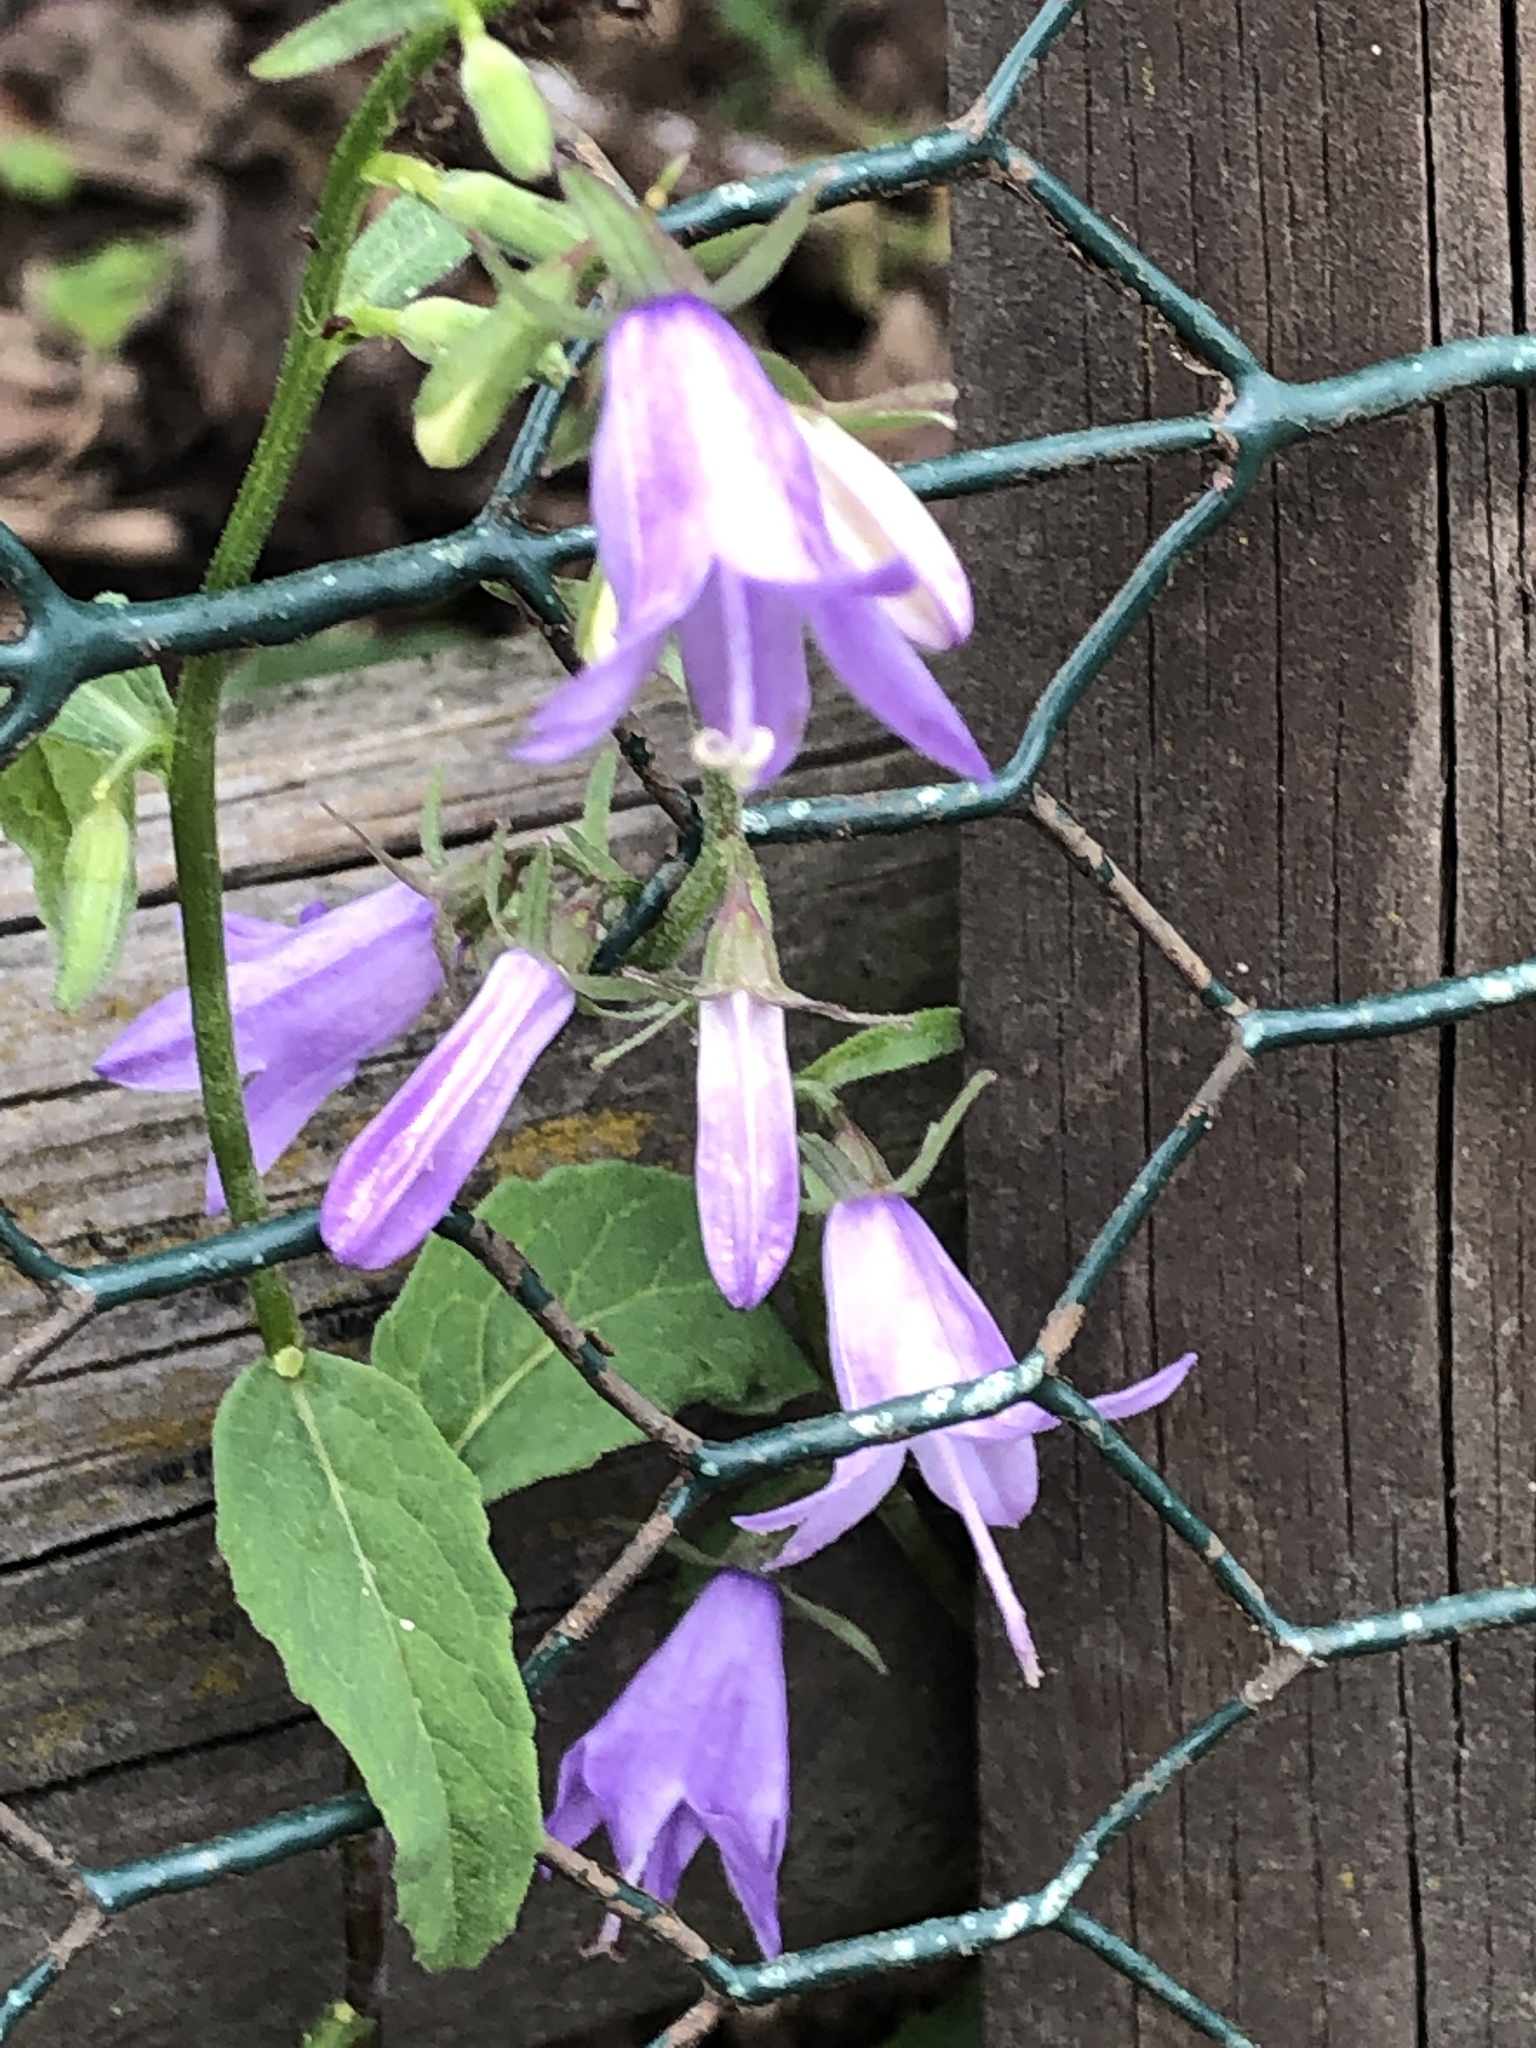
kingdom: Plantae
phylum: Tracheophyta
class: Magnoliopsida
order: Asterales
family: Campanulaceae
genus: Campanula
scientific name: Campanula rapunculoides
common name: Creeping bellflower
